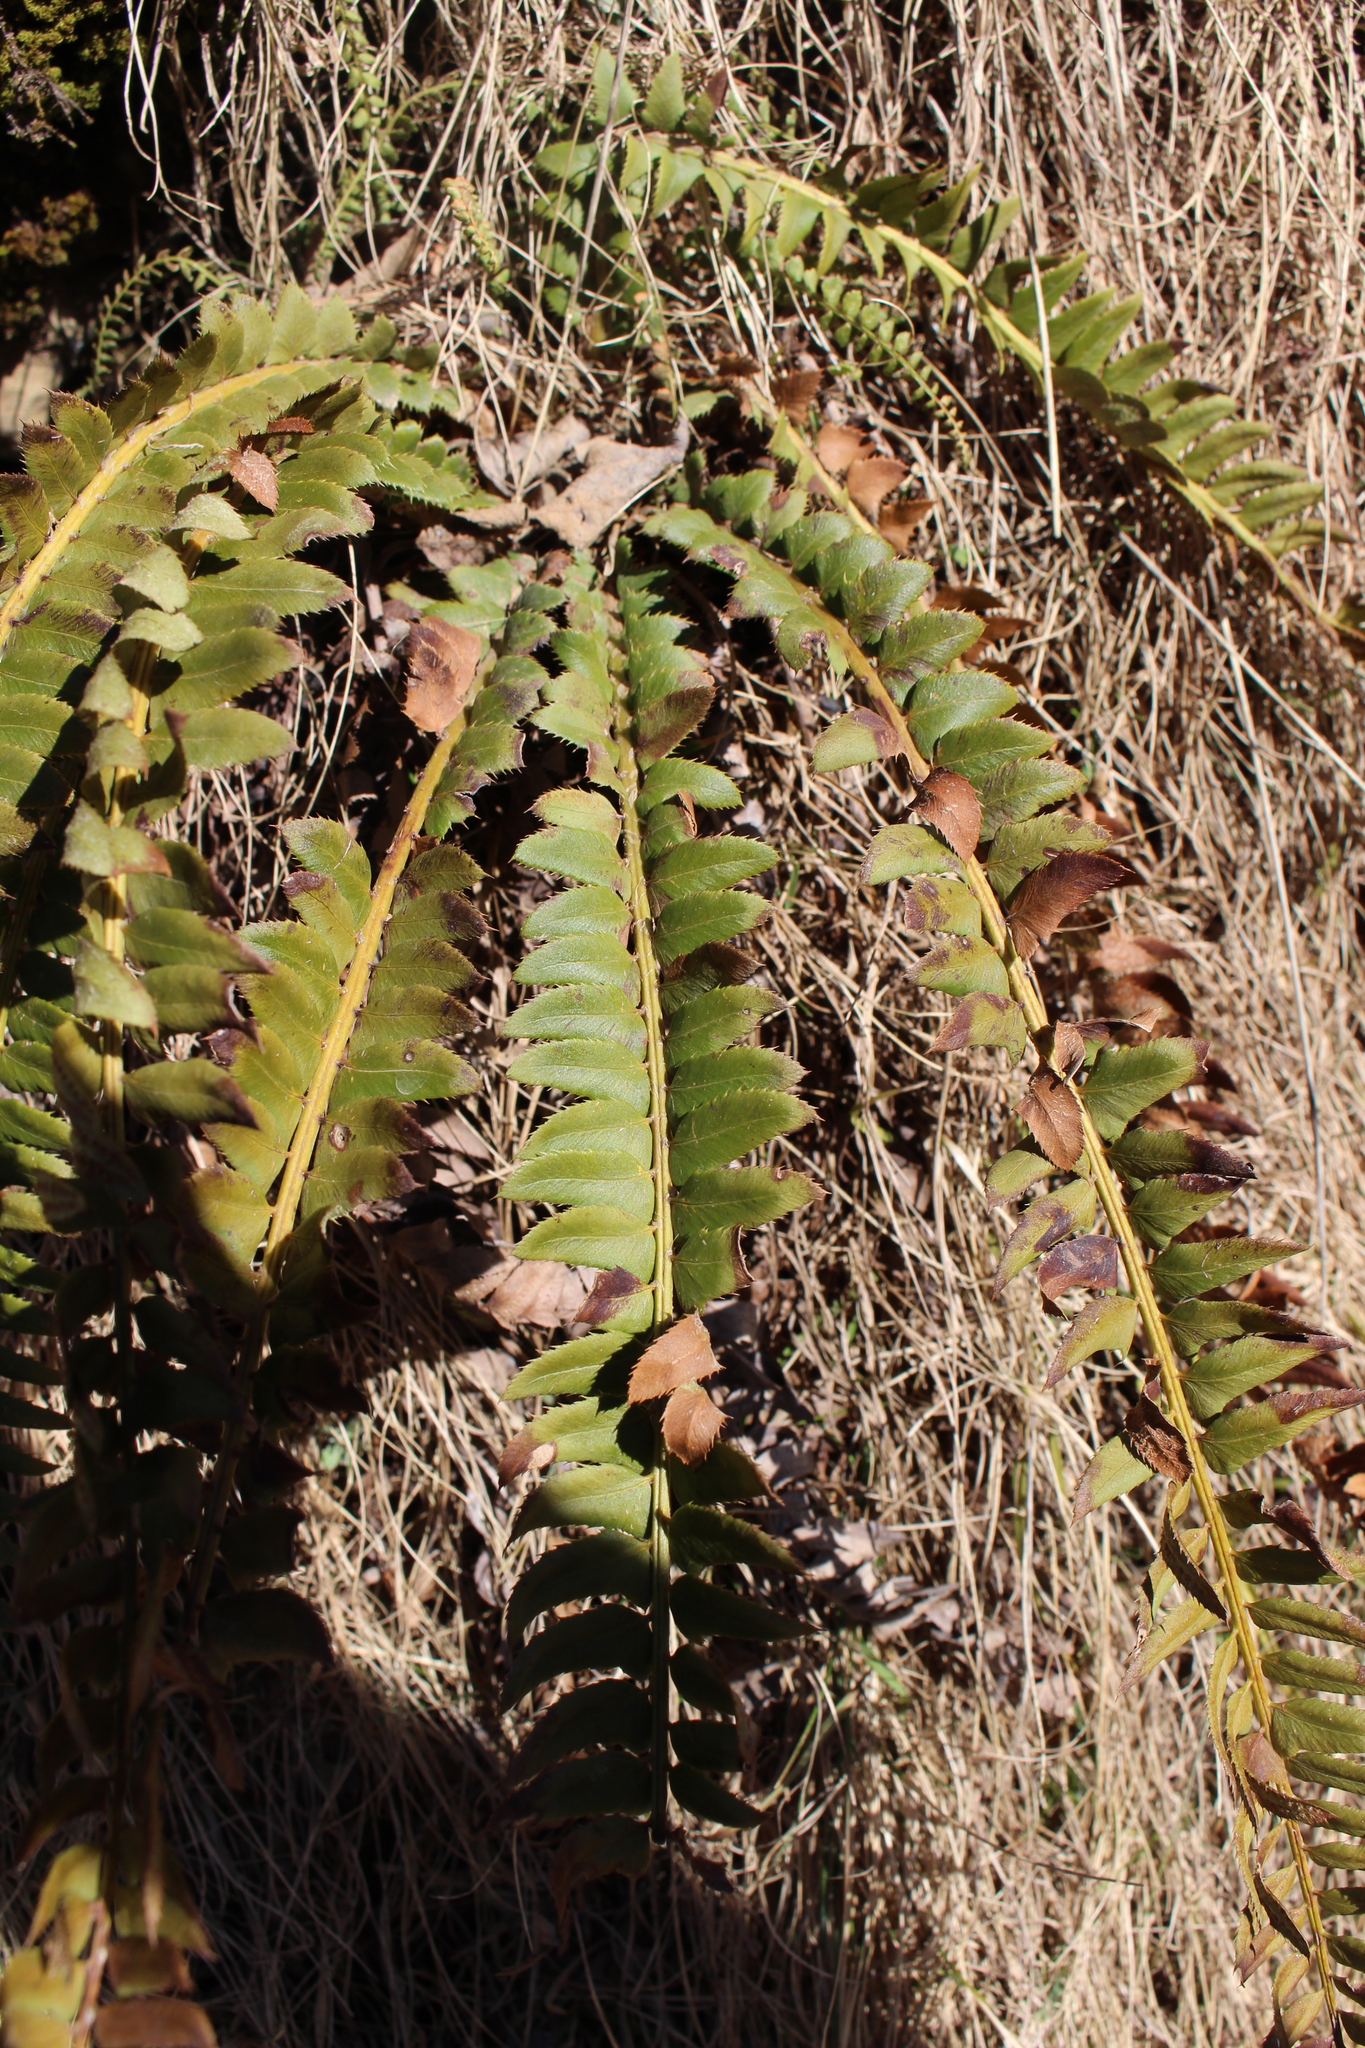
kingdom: Plantae
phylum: Tracheophyta
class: Polypodiopsida
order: Polypodiales
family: Dryopteridaceae
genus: Polystichum
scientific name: Polystichum lonchitis
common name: Holly fern
